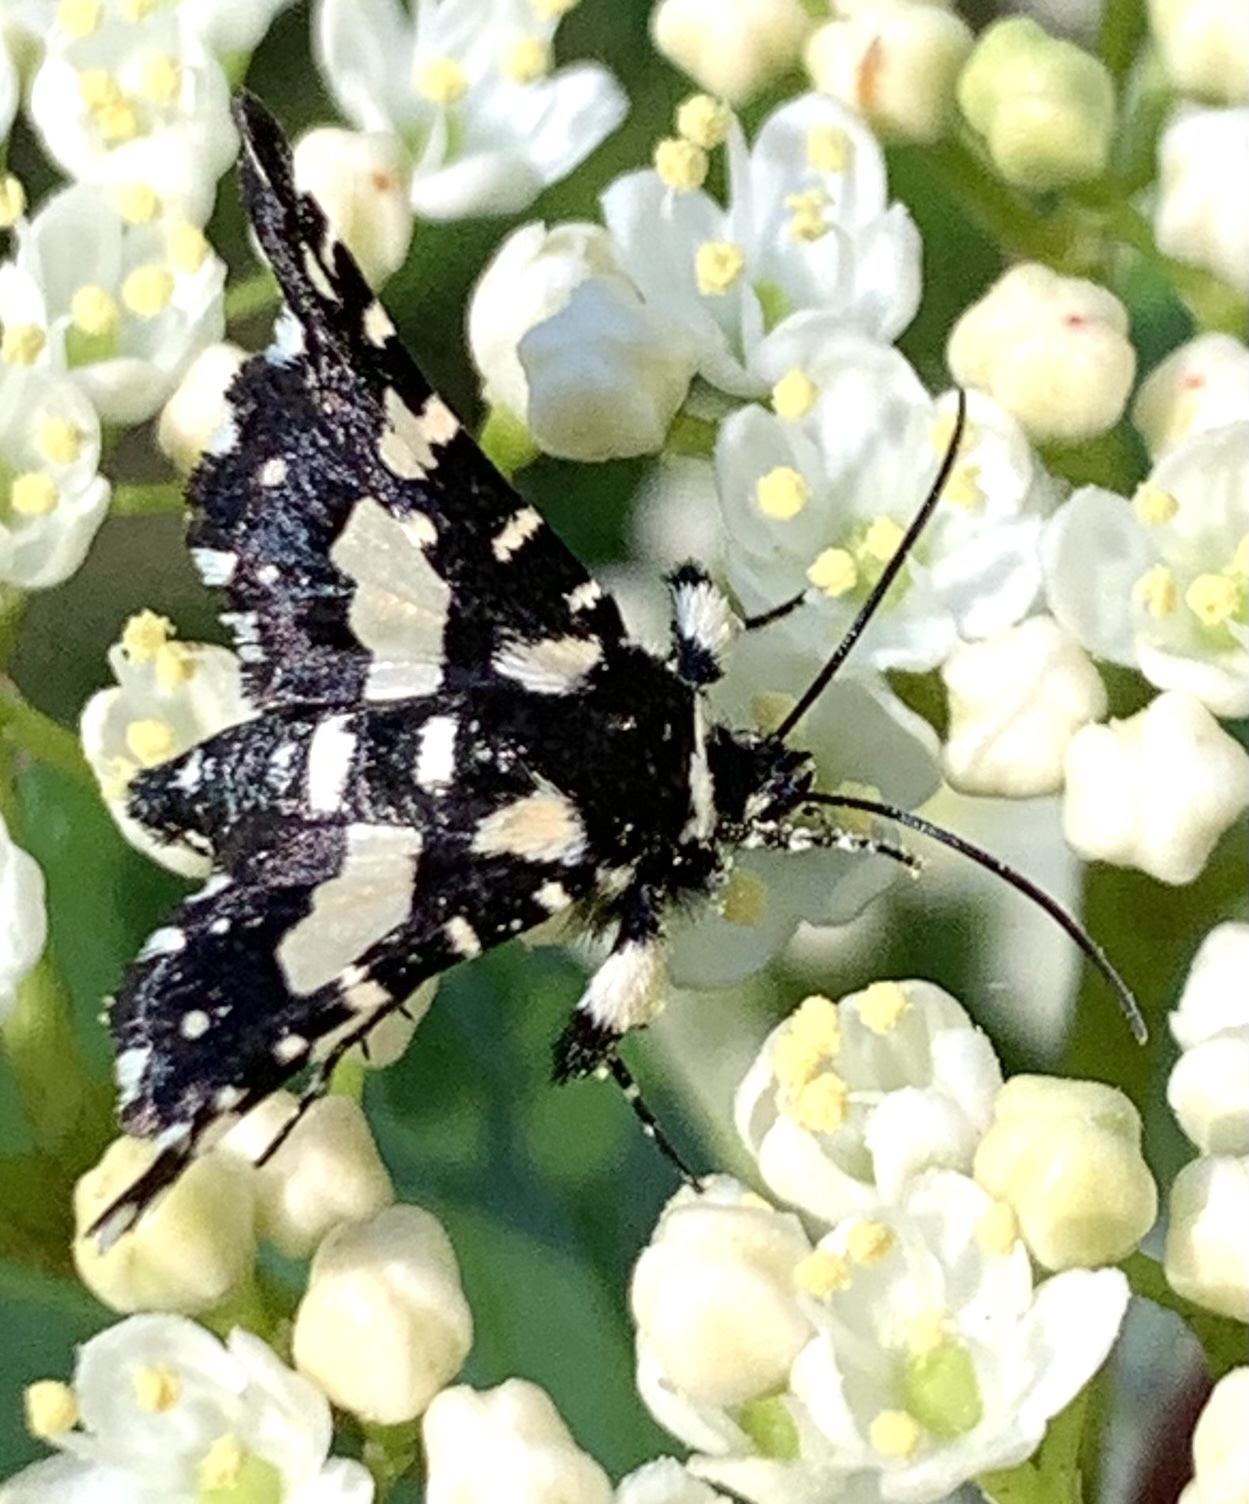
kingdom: Animalia
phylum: Arthropoda
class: Insecta
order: Lepidoptera
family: Thyrididae
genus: Pseudothyris
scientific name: Pseudothyris sepulchralis
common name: Mournful thyris moth
